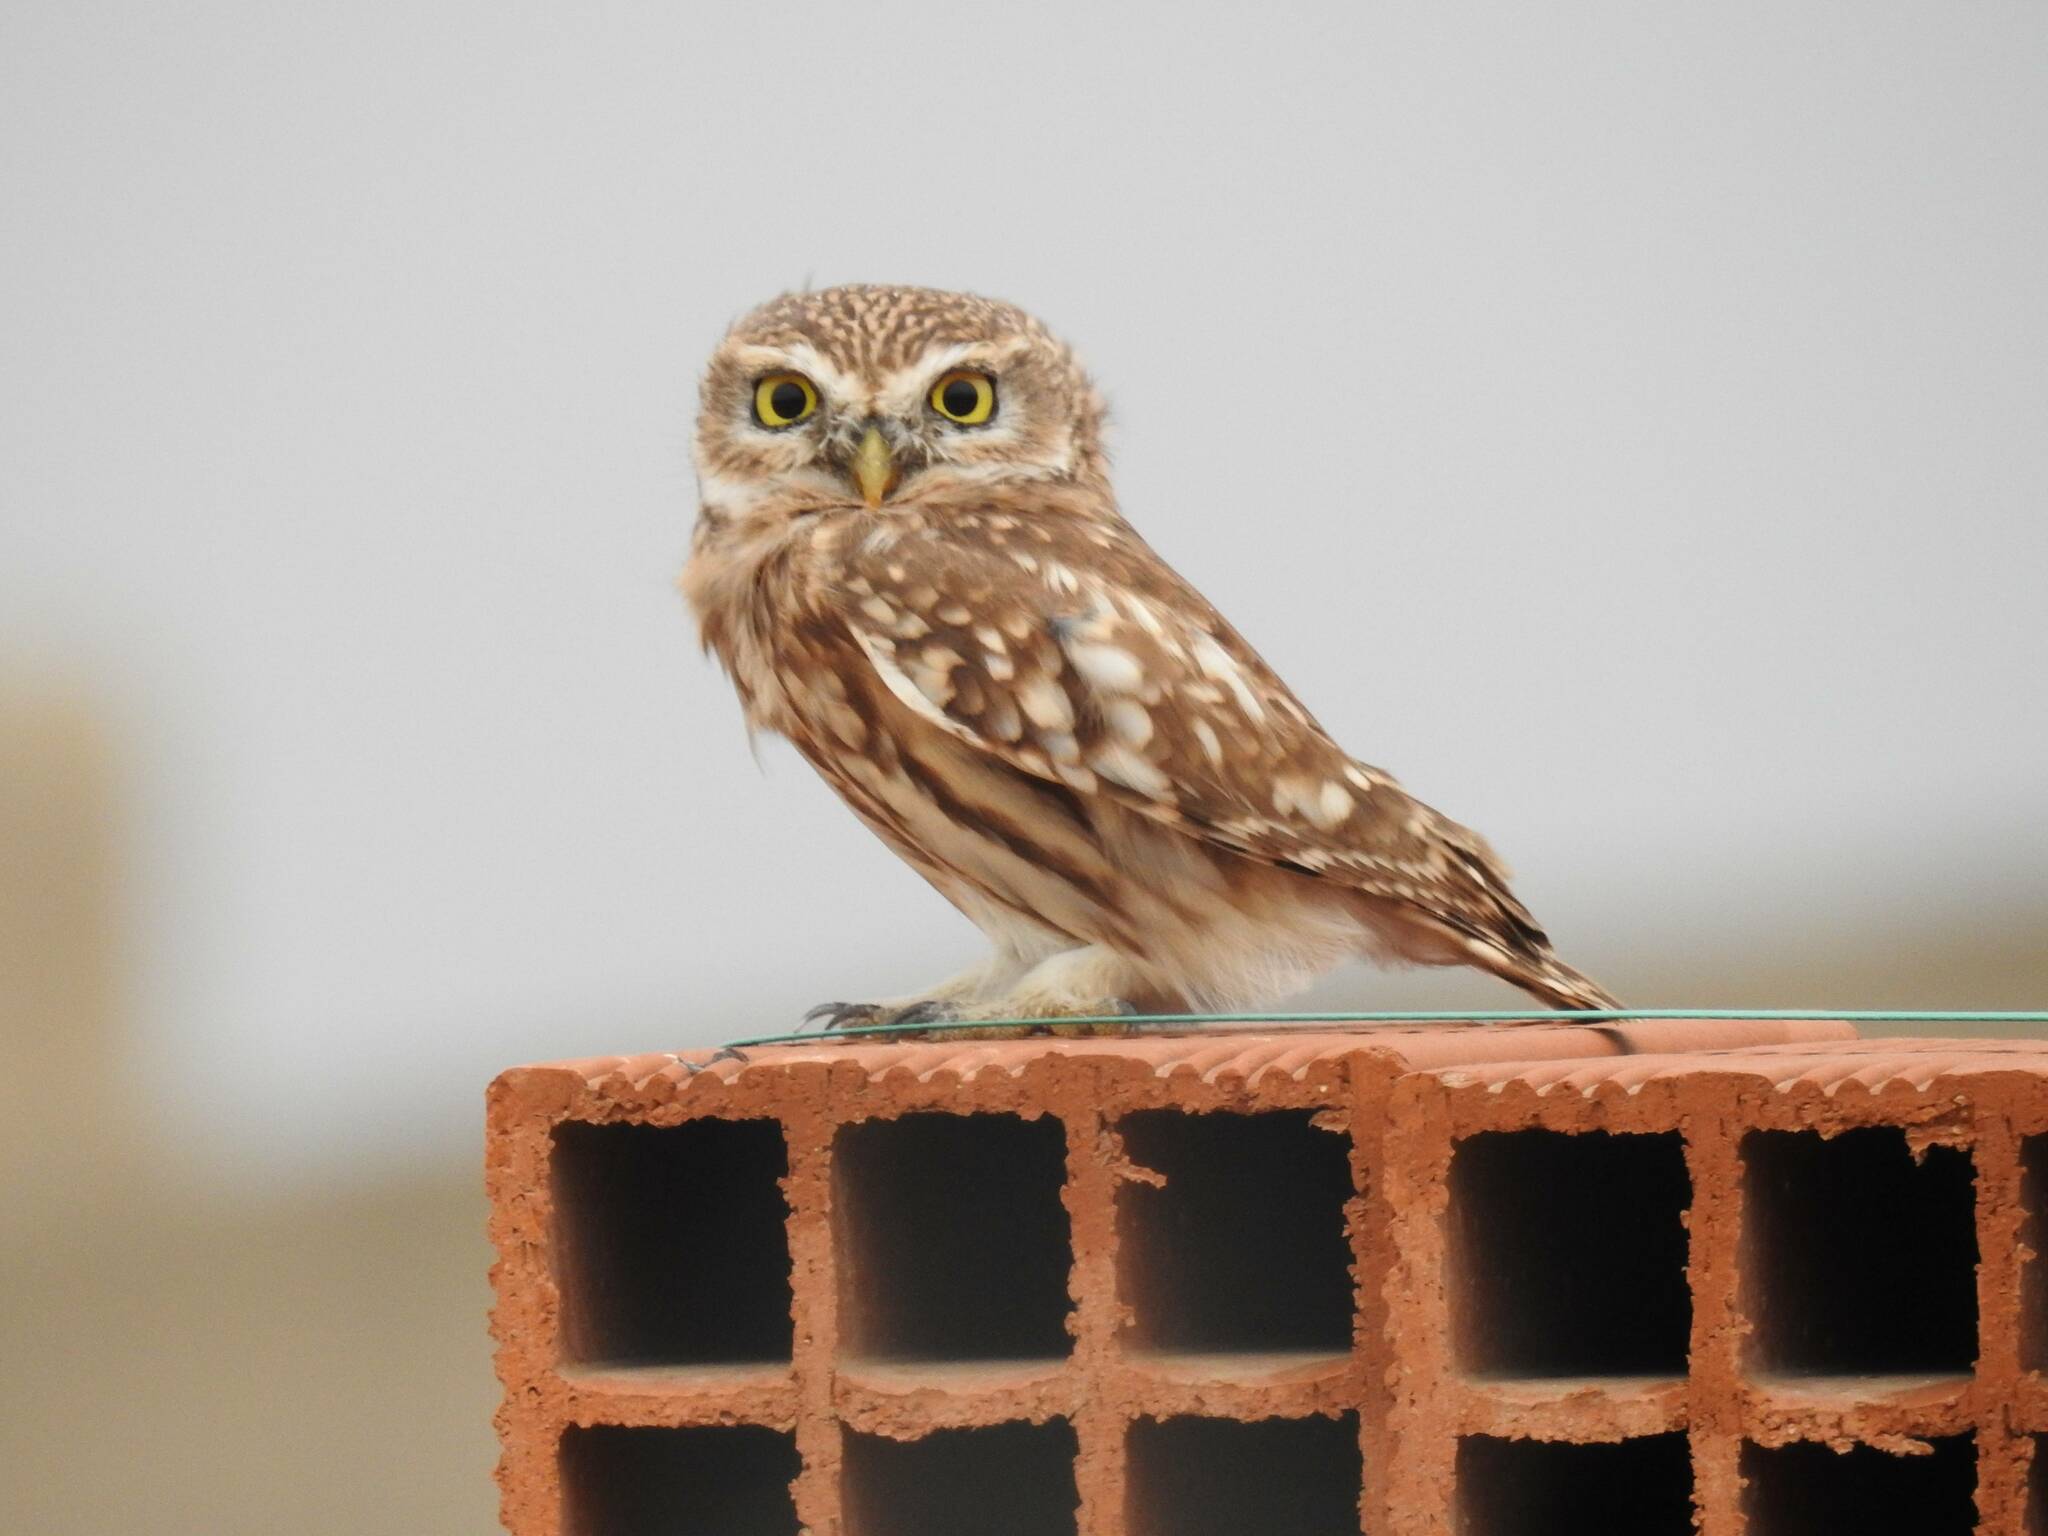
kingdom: Animalia
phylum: Chordata
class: Aves
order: Strigiformes
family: Strigidae
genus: Athene
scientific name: Athene noctua
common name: Little owl
